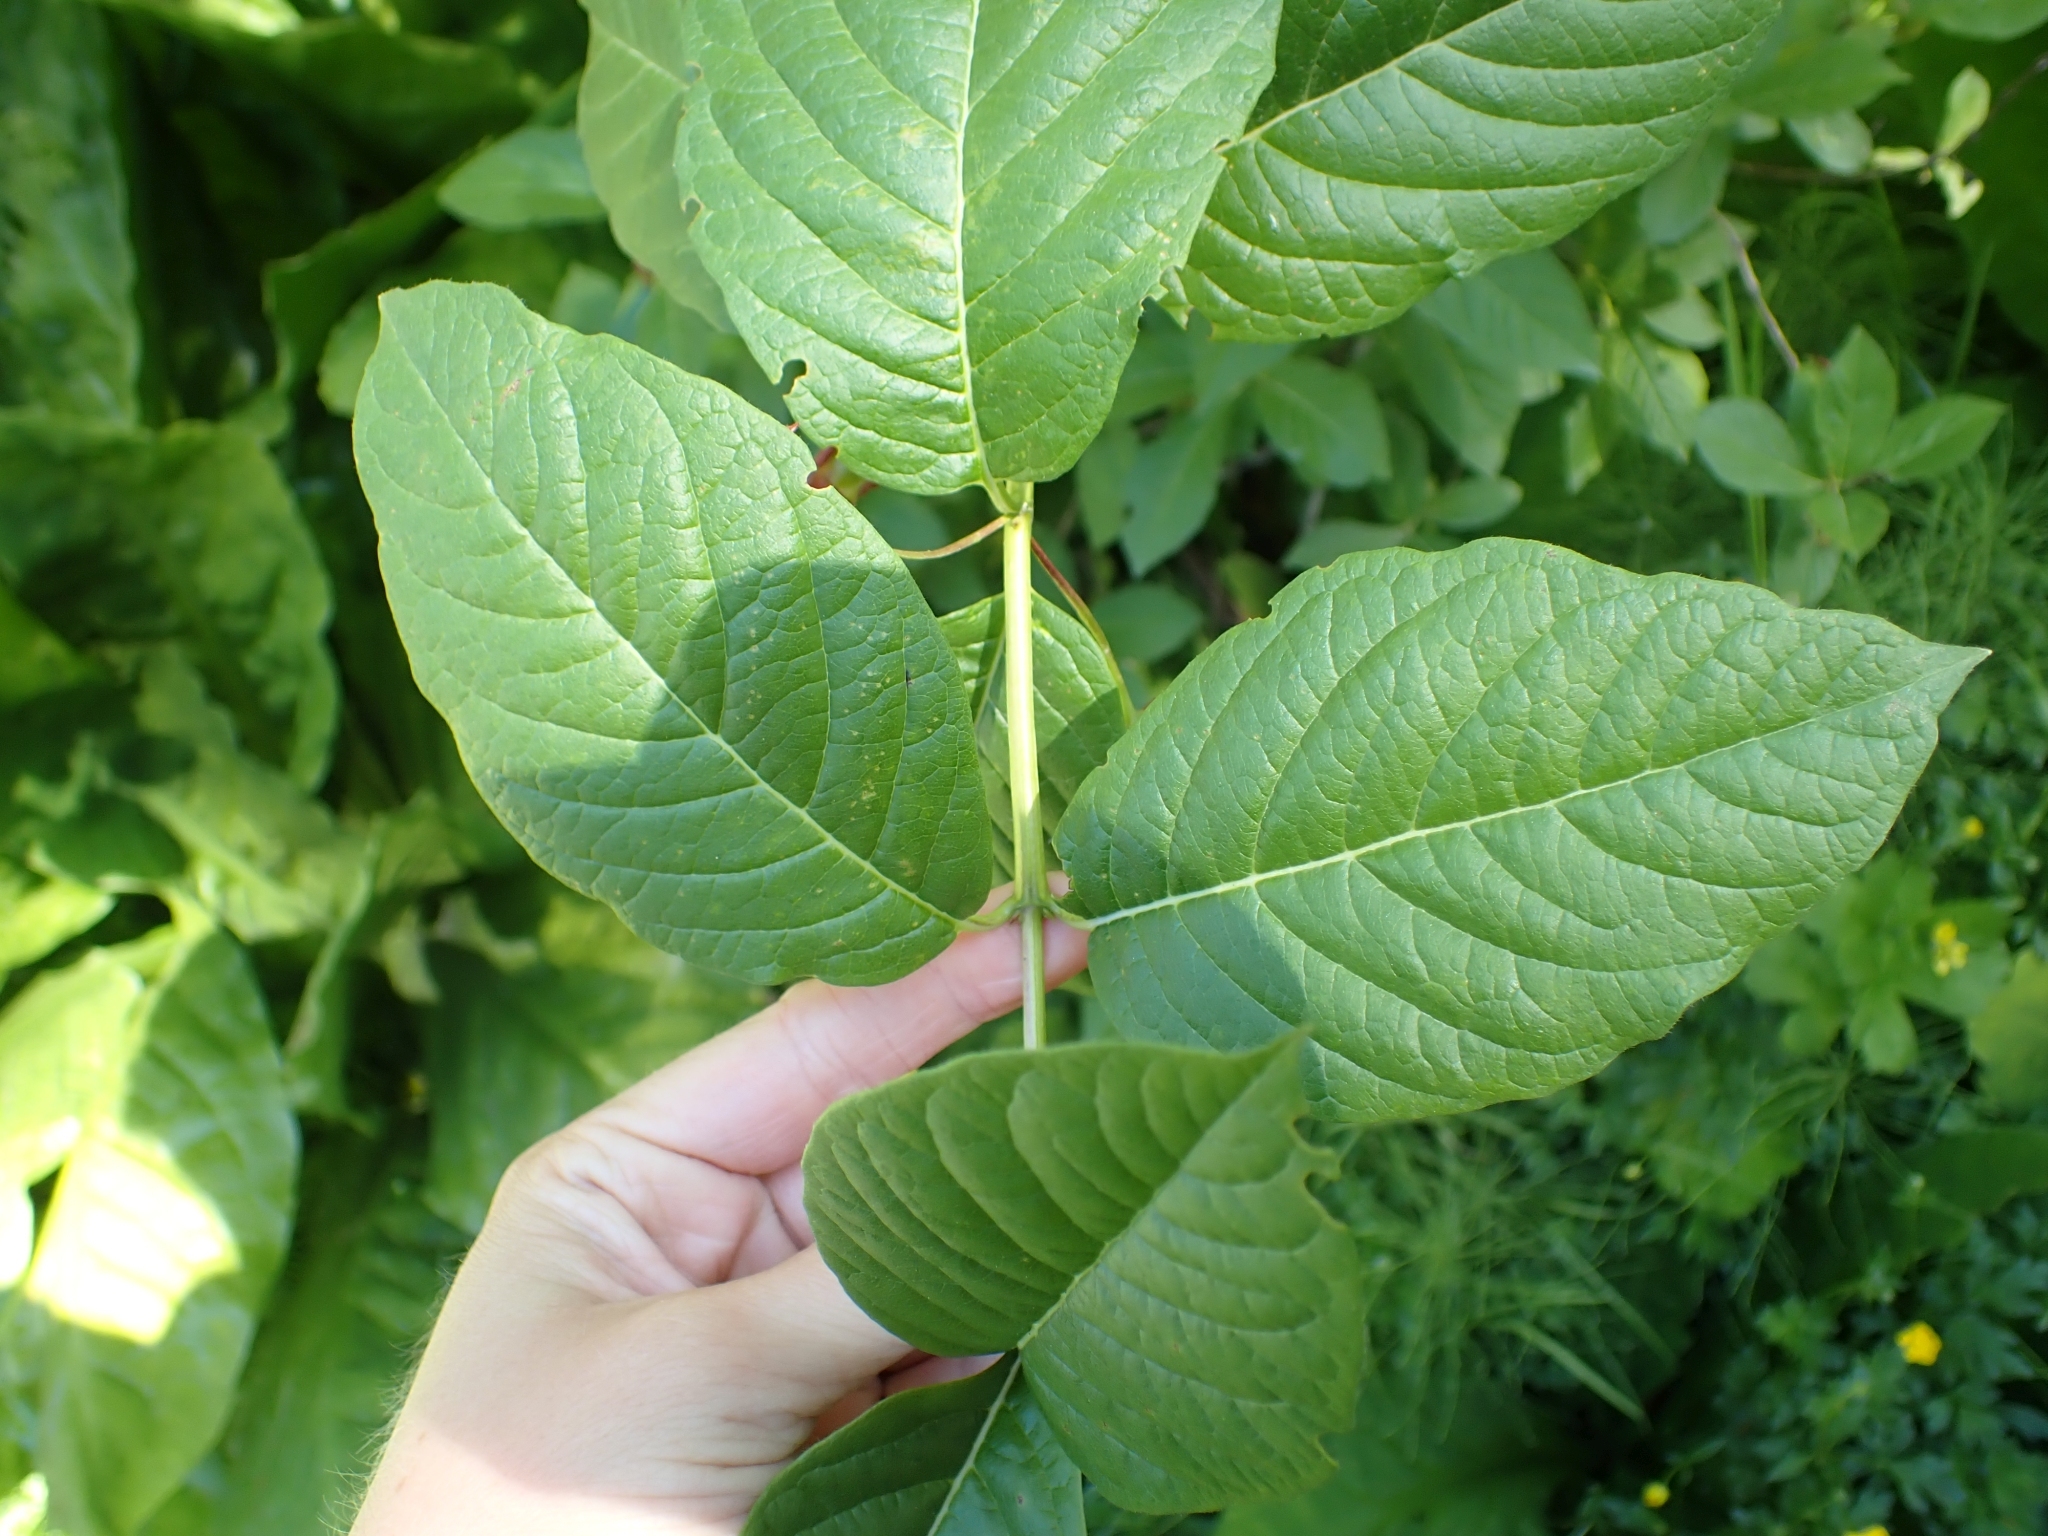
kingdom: Plantae
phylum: Tracheophyta
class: Magnoliopsida
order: Dipsacales
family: Caprifoliaceae
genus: Lonicera
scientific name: Lonicera involucrata
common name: Californian honeysuckle
